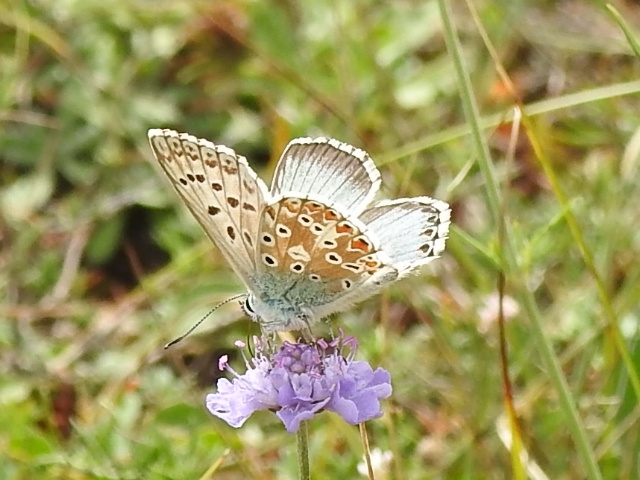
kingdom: Animalia
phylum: Arthropoda
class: Insecta
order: Lepidoptera
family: Lycaenidae
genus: Lysandra
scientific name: Lysandra coridon
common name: Chalkhill blue
